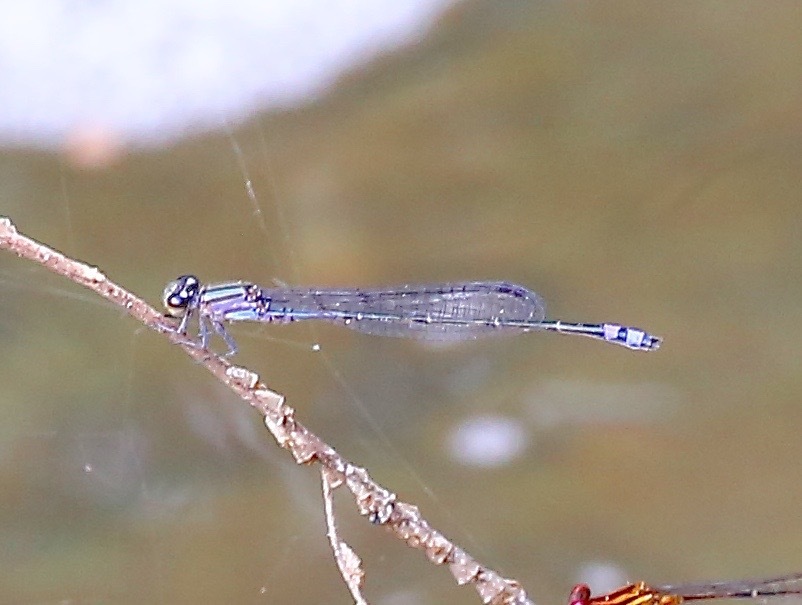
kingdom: Animalia
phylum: Arthropoda
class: Insecta
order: Odonata
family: Coenagrionidae
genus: Enallagma
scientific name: Enallagma novaehispaniae
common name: Neotropical bluet
